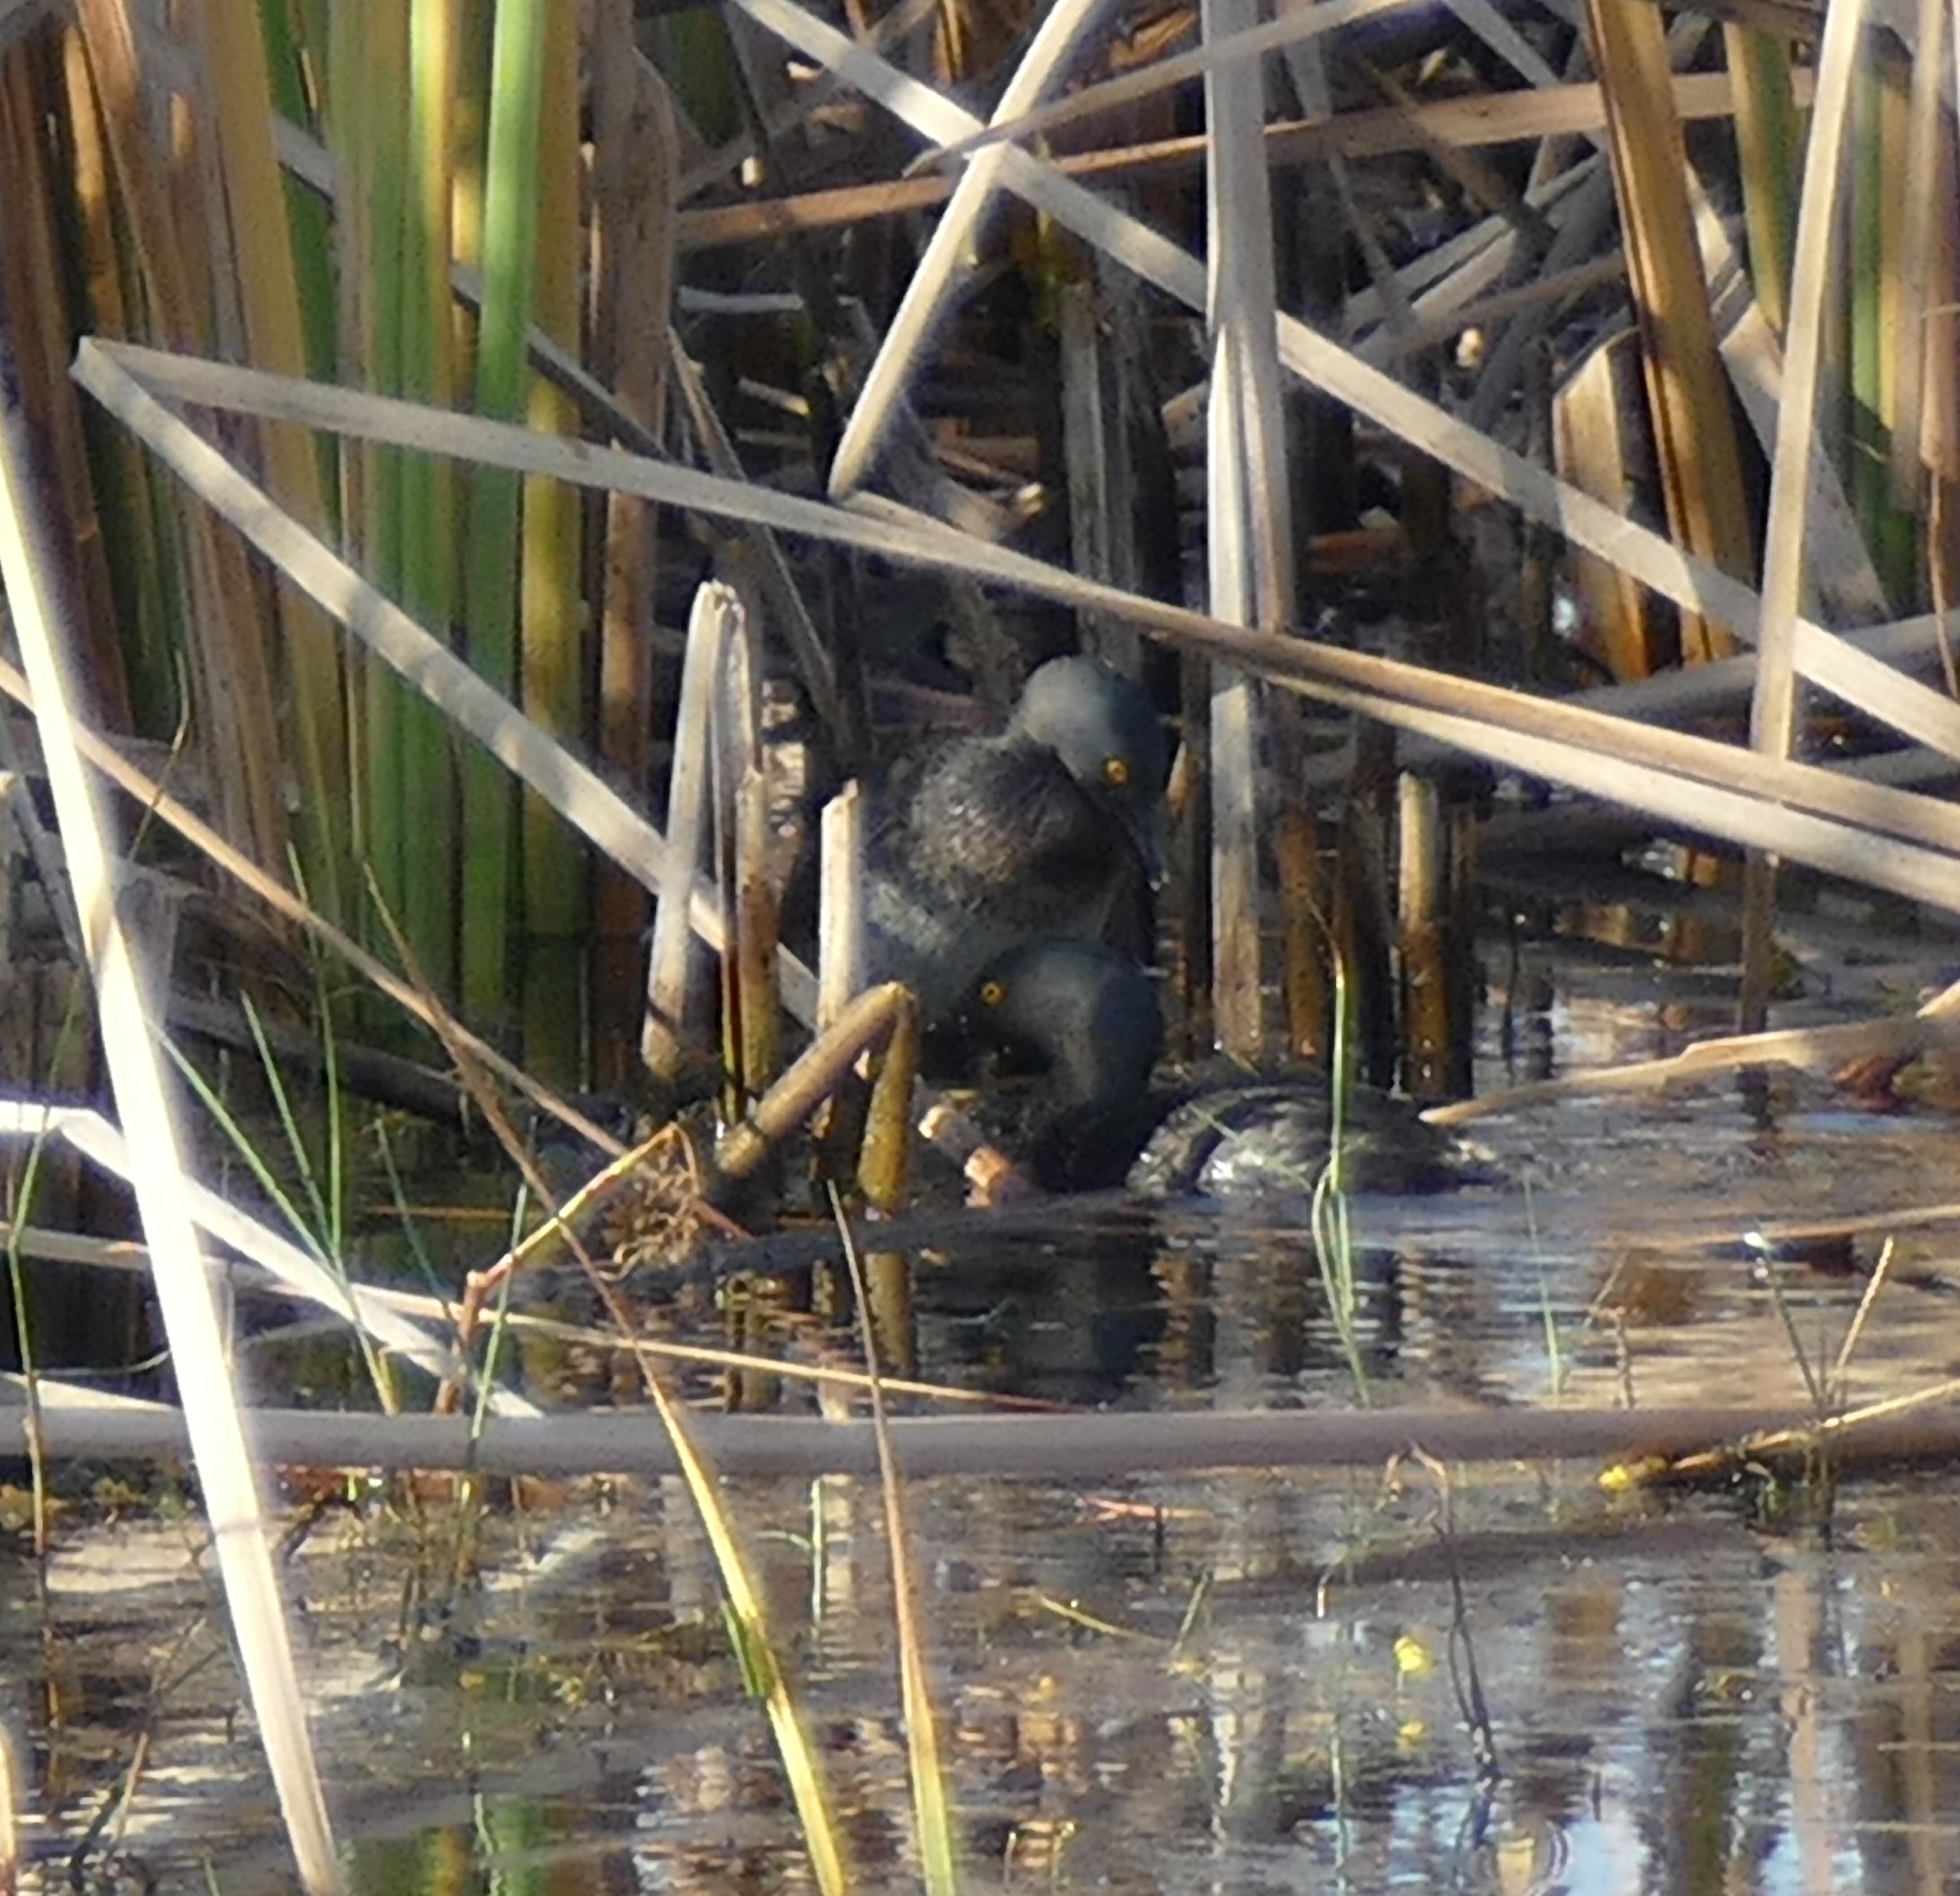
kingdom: Animalia
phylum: Chordata
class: Aves
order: Podicipediformes
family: Podicipedidae
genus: Tachybaptus
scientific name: Tachybaptus dominicus
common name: Least grebe
